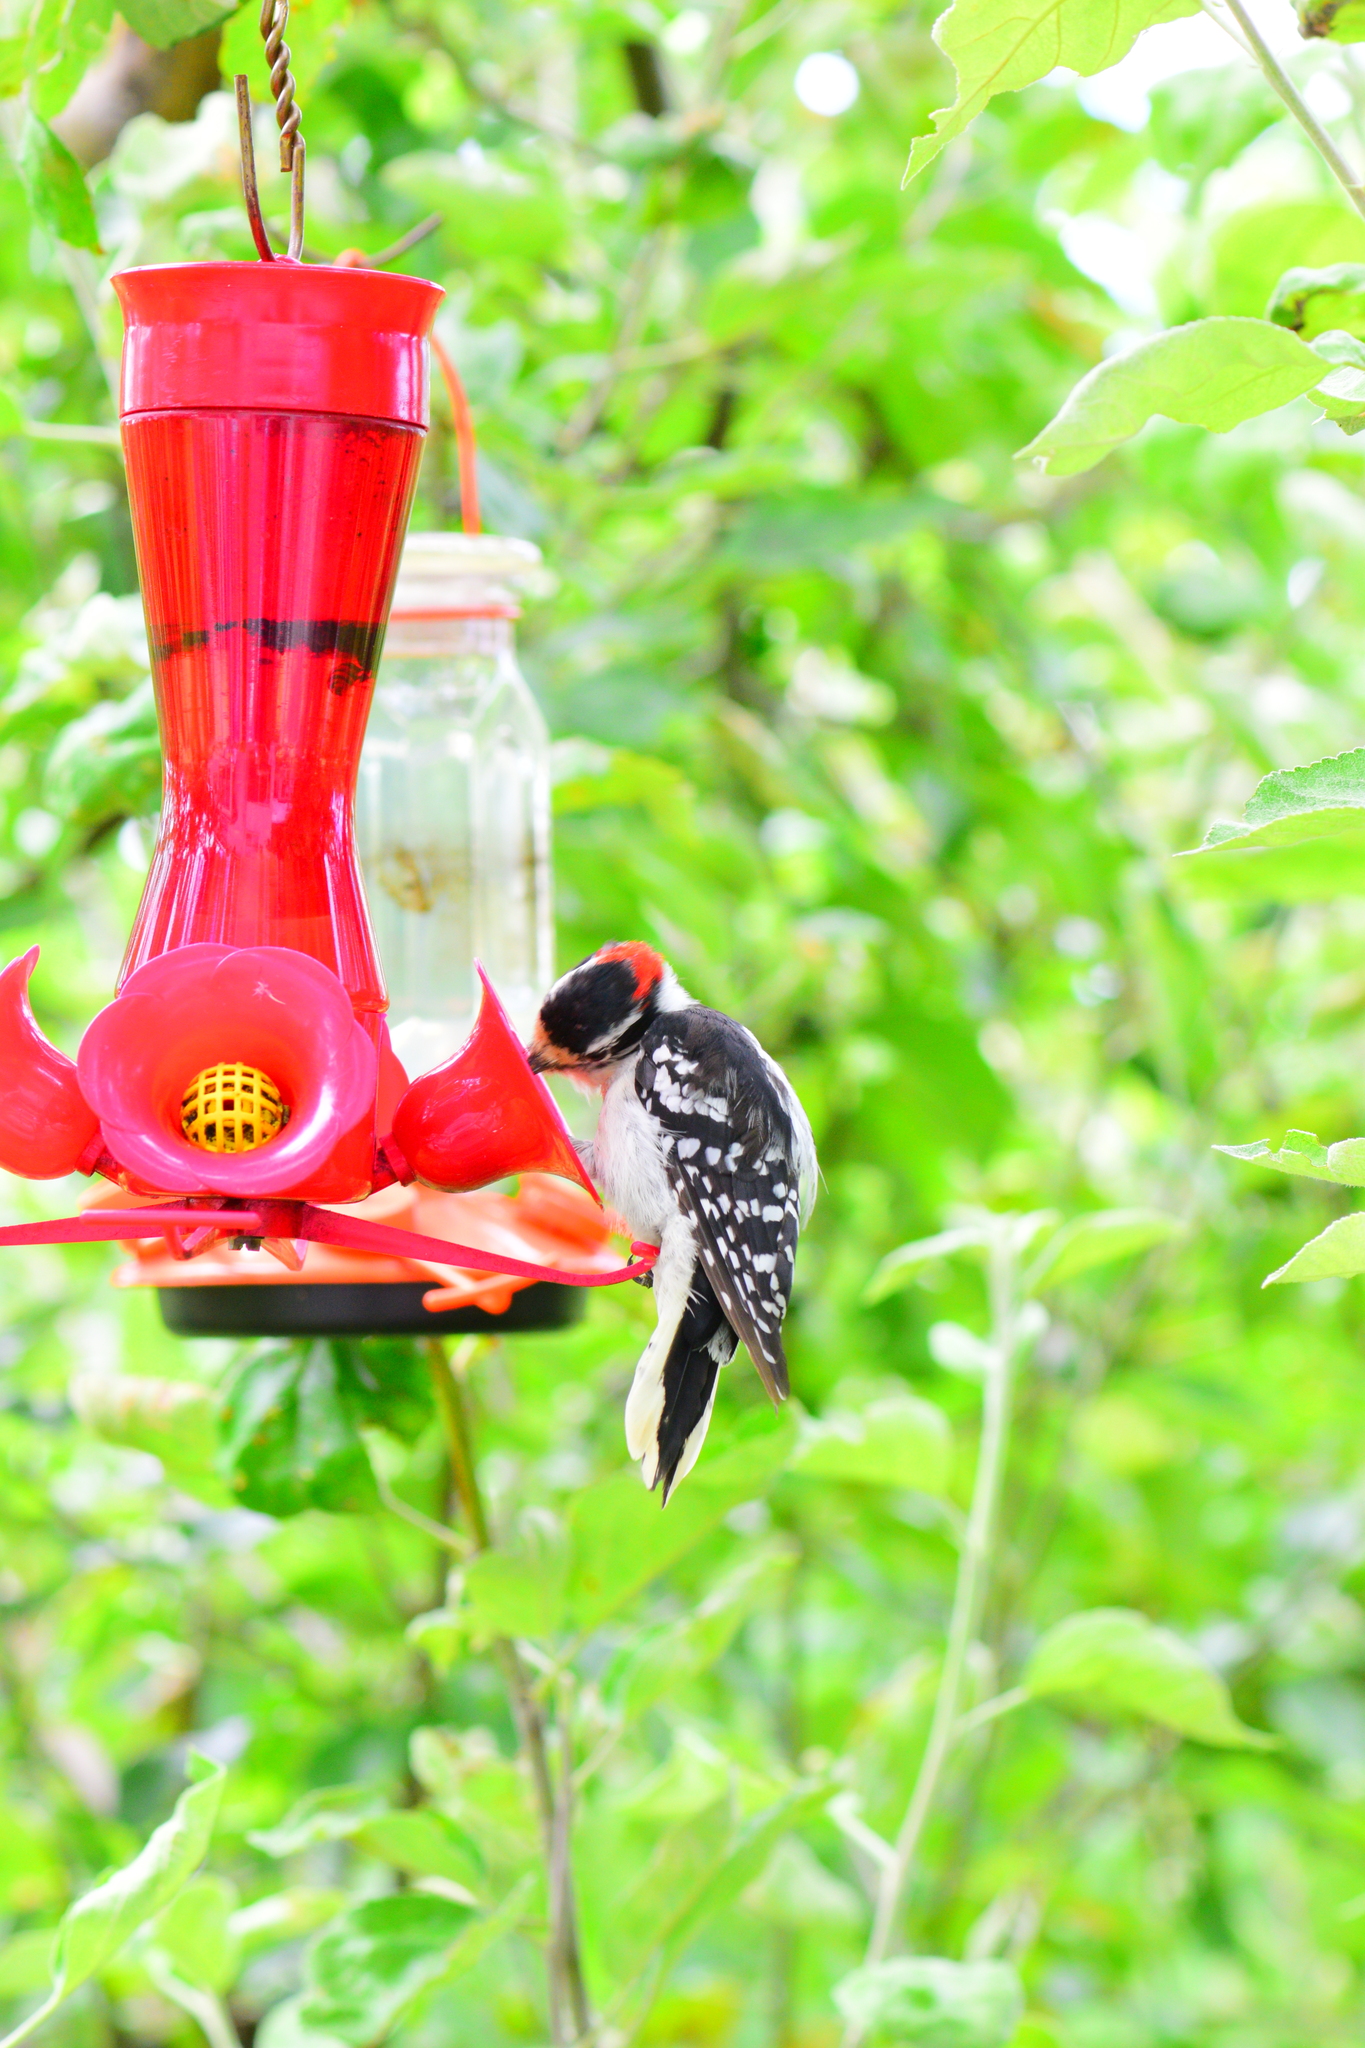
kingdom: Animalia
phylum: Chordata
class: Aves
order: Piciformes
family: Picidae
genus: Dryobates
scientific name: Dryobates pubescens
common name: Downy woodpecker
